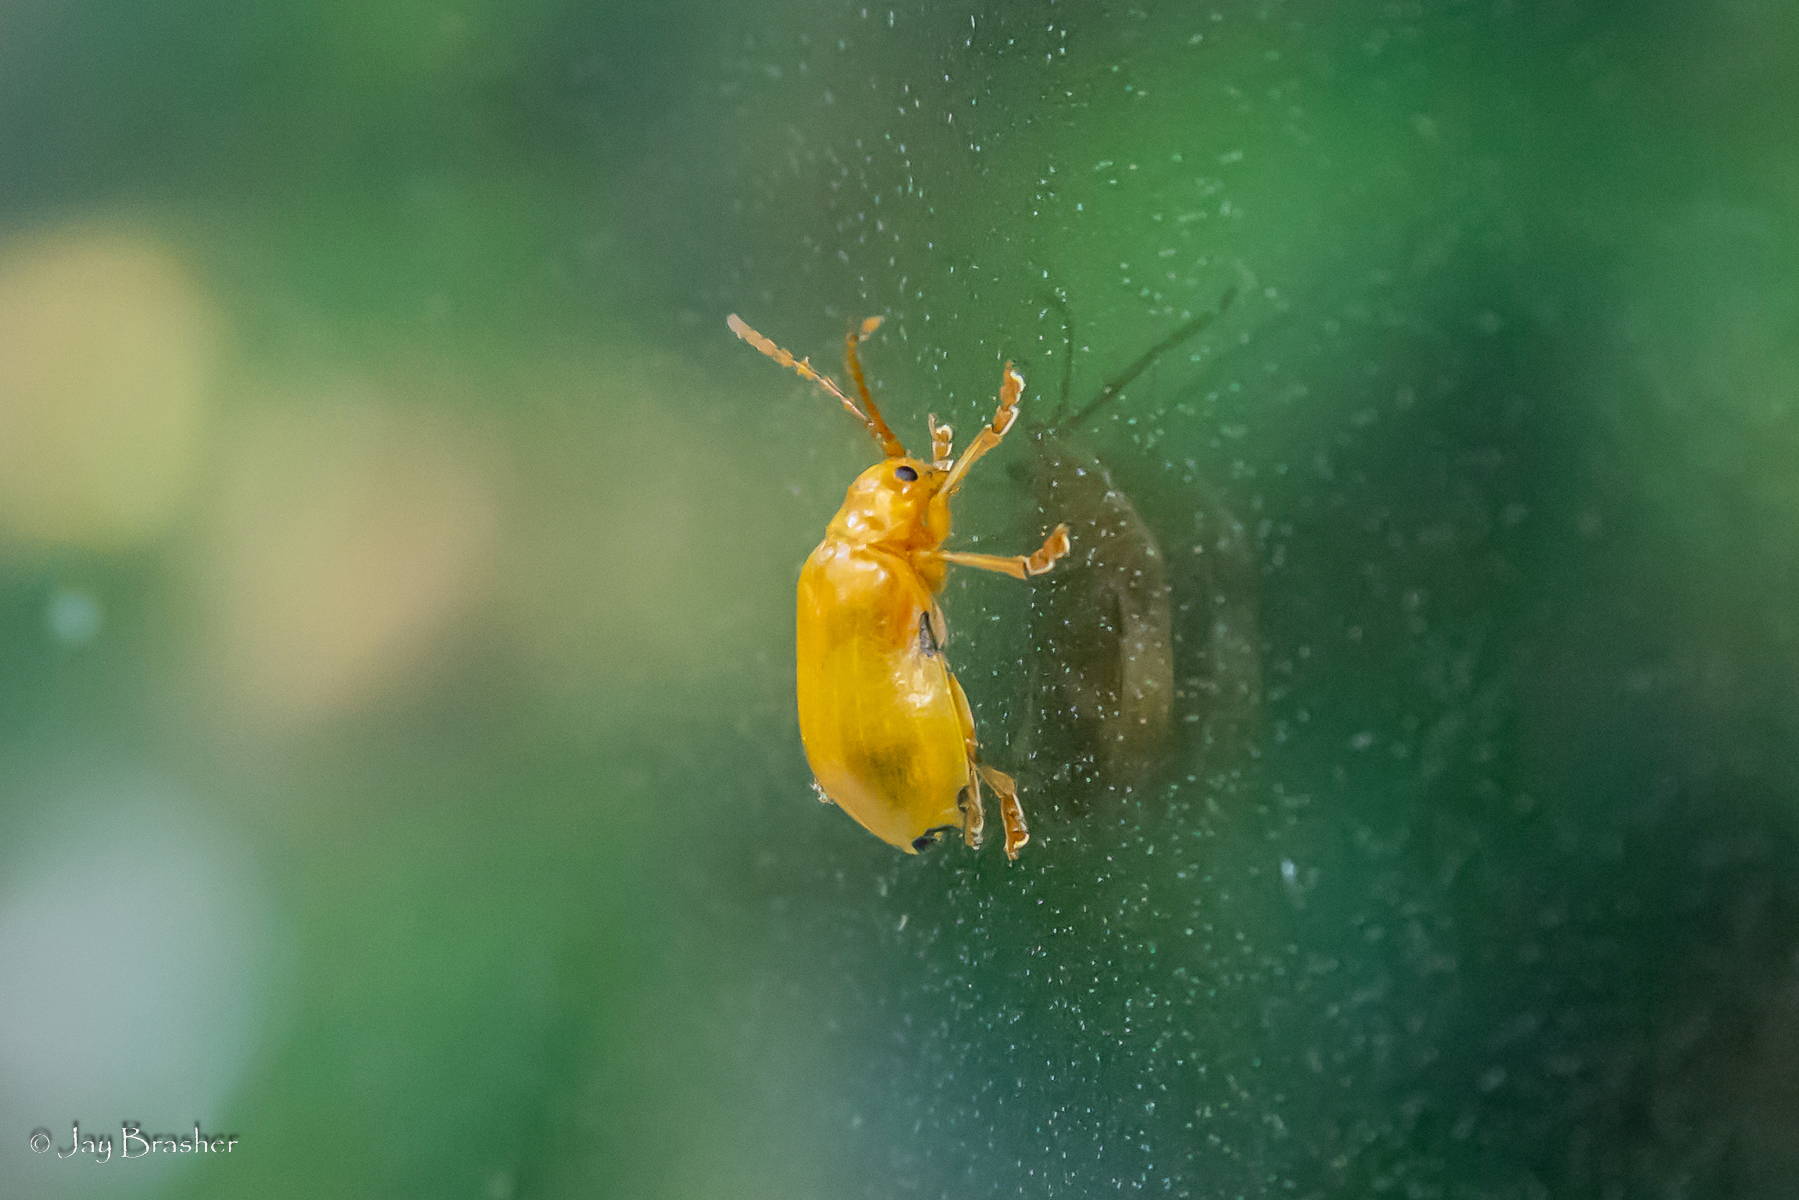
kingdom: Animalia
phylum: Arthropoda
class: Insecta
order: Coleoptera
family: Chrysomelidae
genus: Monocesta
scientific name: Monocesta coryli
